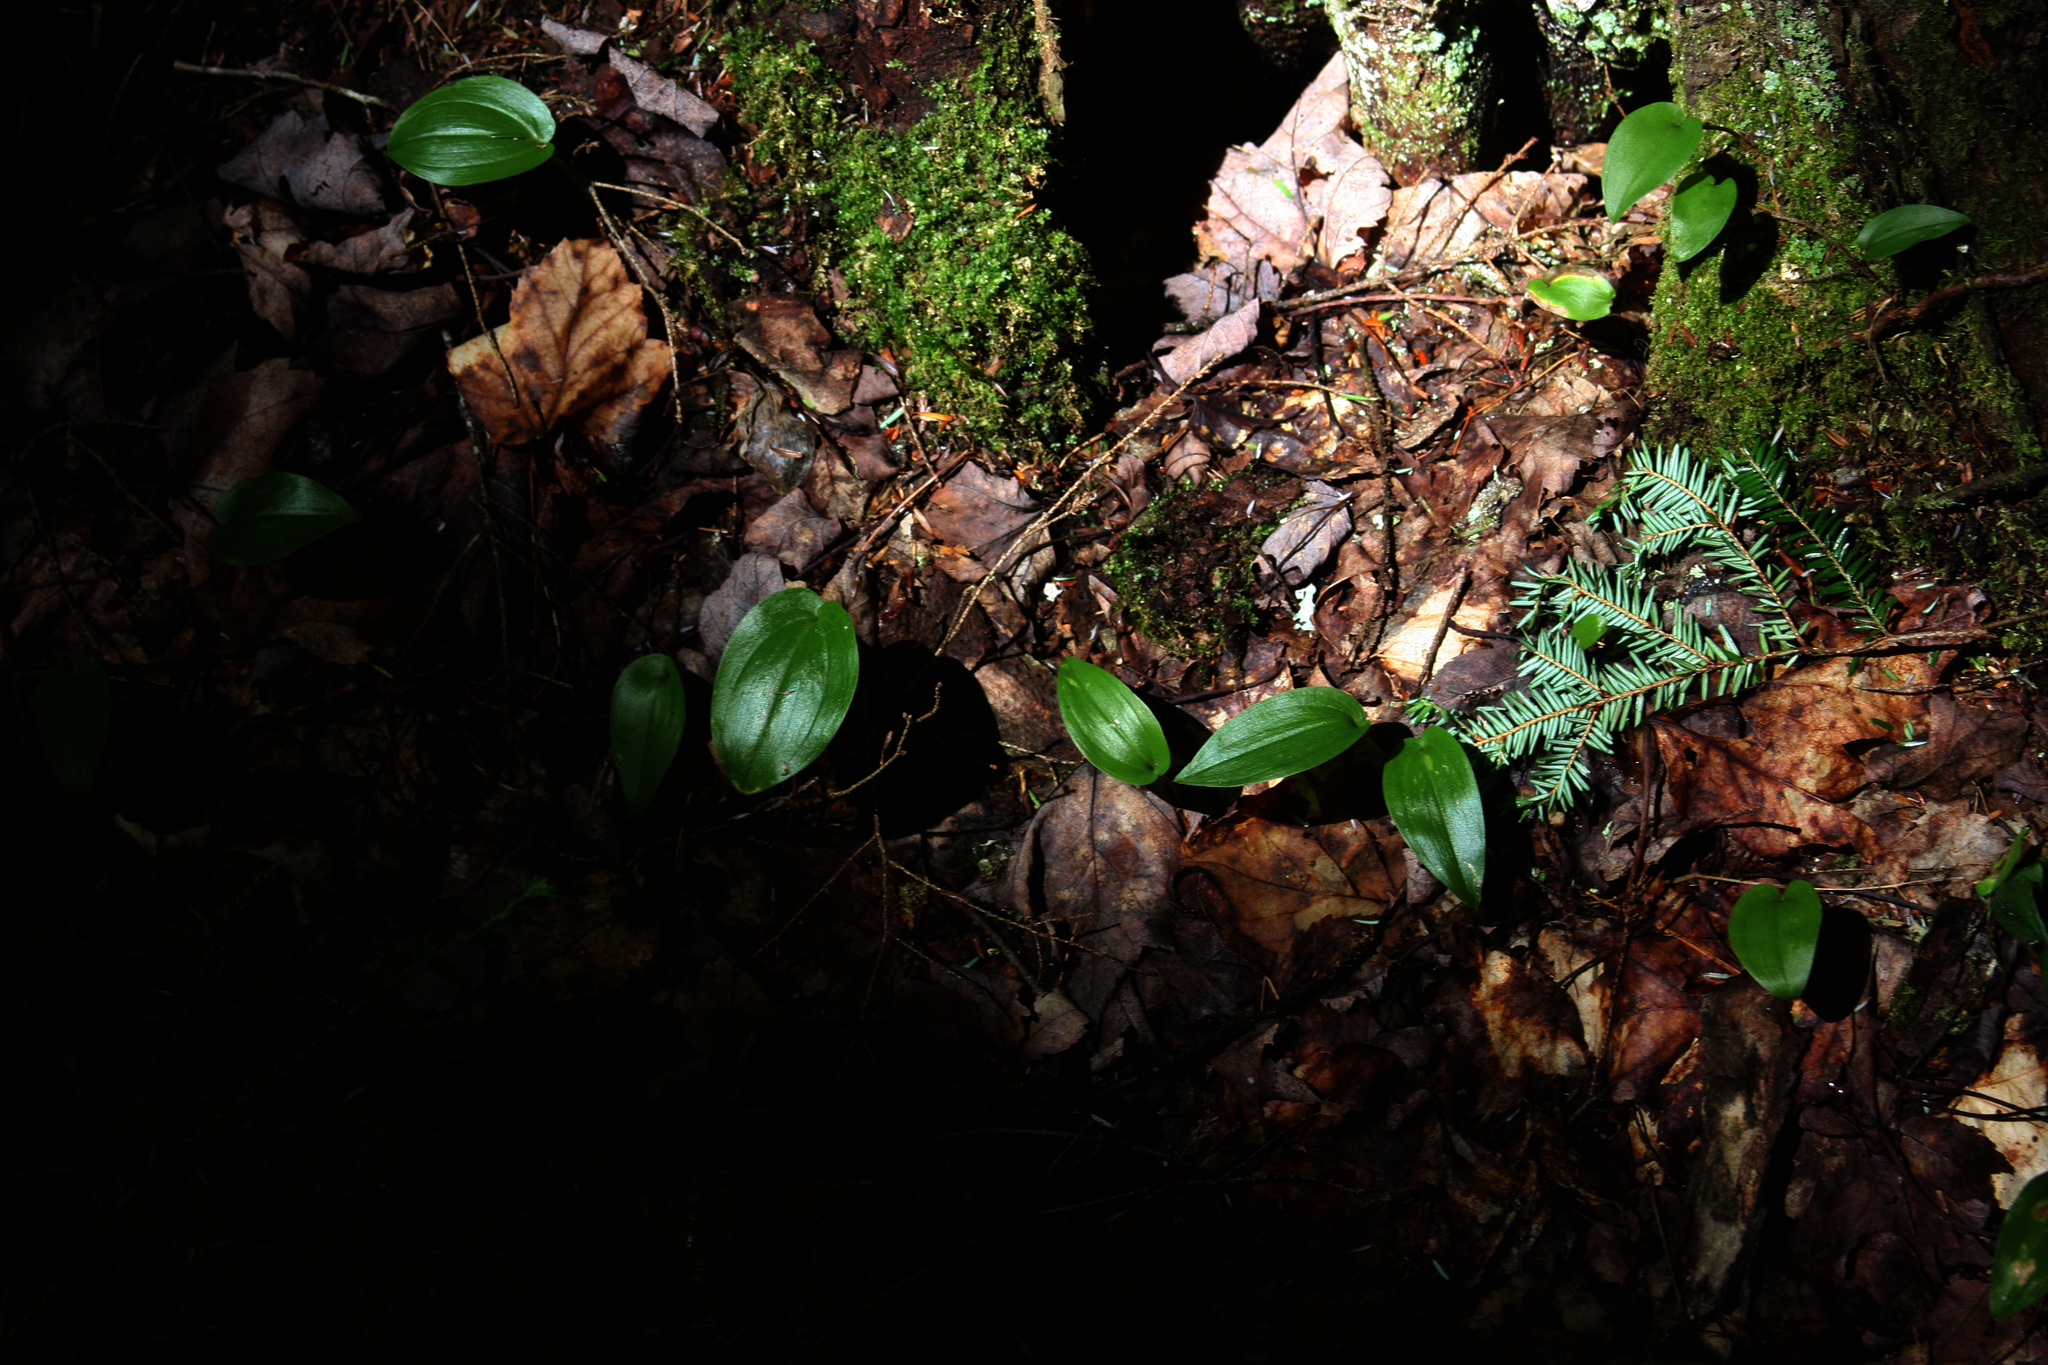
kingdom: Plantae
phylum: Tracheophyta
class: Liliopsida
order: Asparagales
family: Asparagaceae
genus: Maianthemum
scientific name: Maianthemum canadense
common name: False lily-of-the-valley
